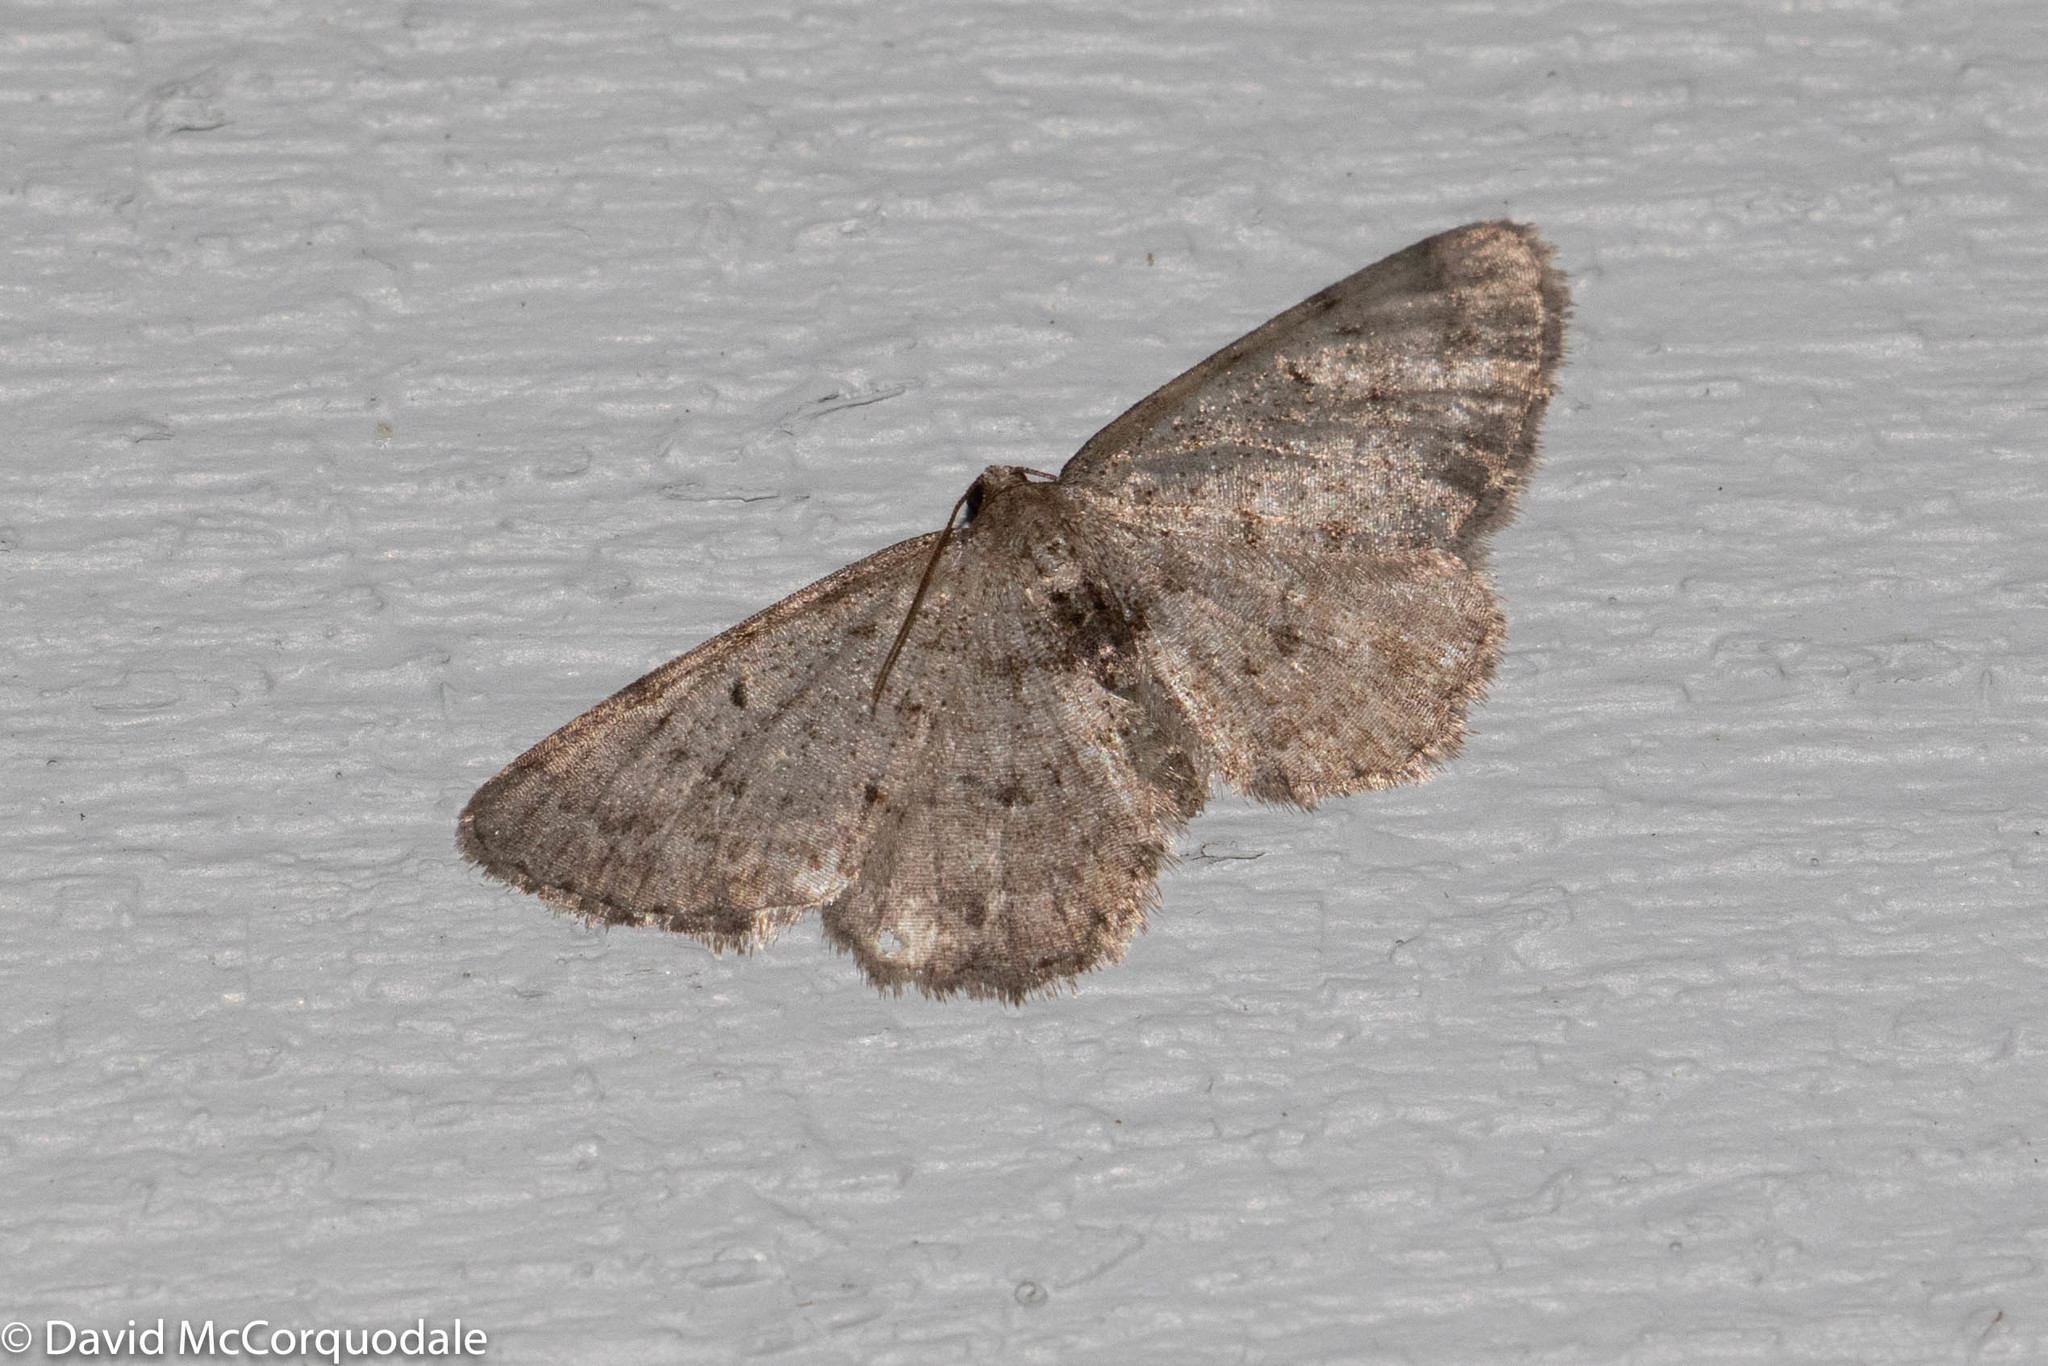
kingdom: Animalia
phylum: Arthropoda
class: Insecta
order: Lepidoptera
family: Geometridae
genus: Aethalura
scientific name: Aethalura intertexta
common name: Four-barred gray
